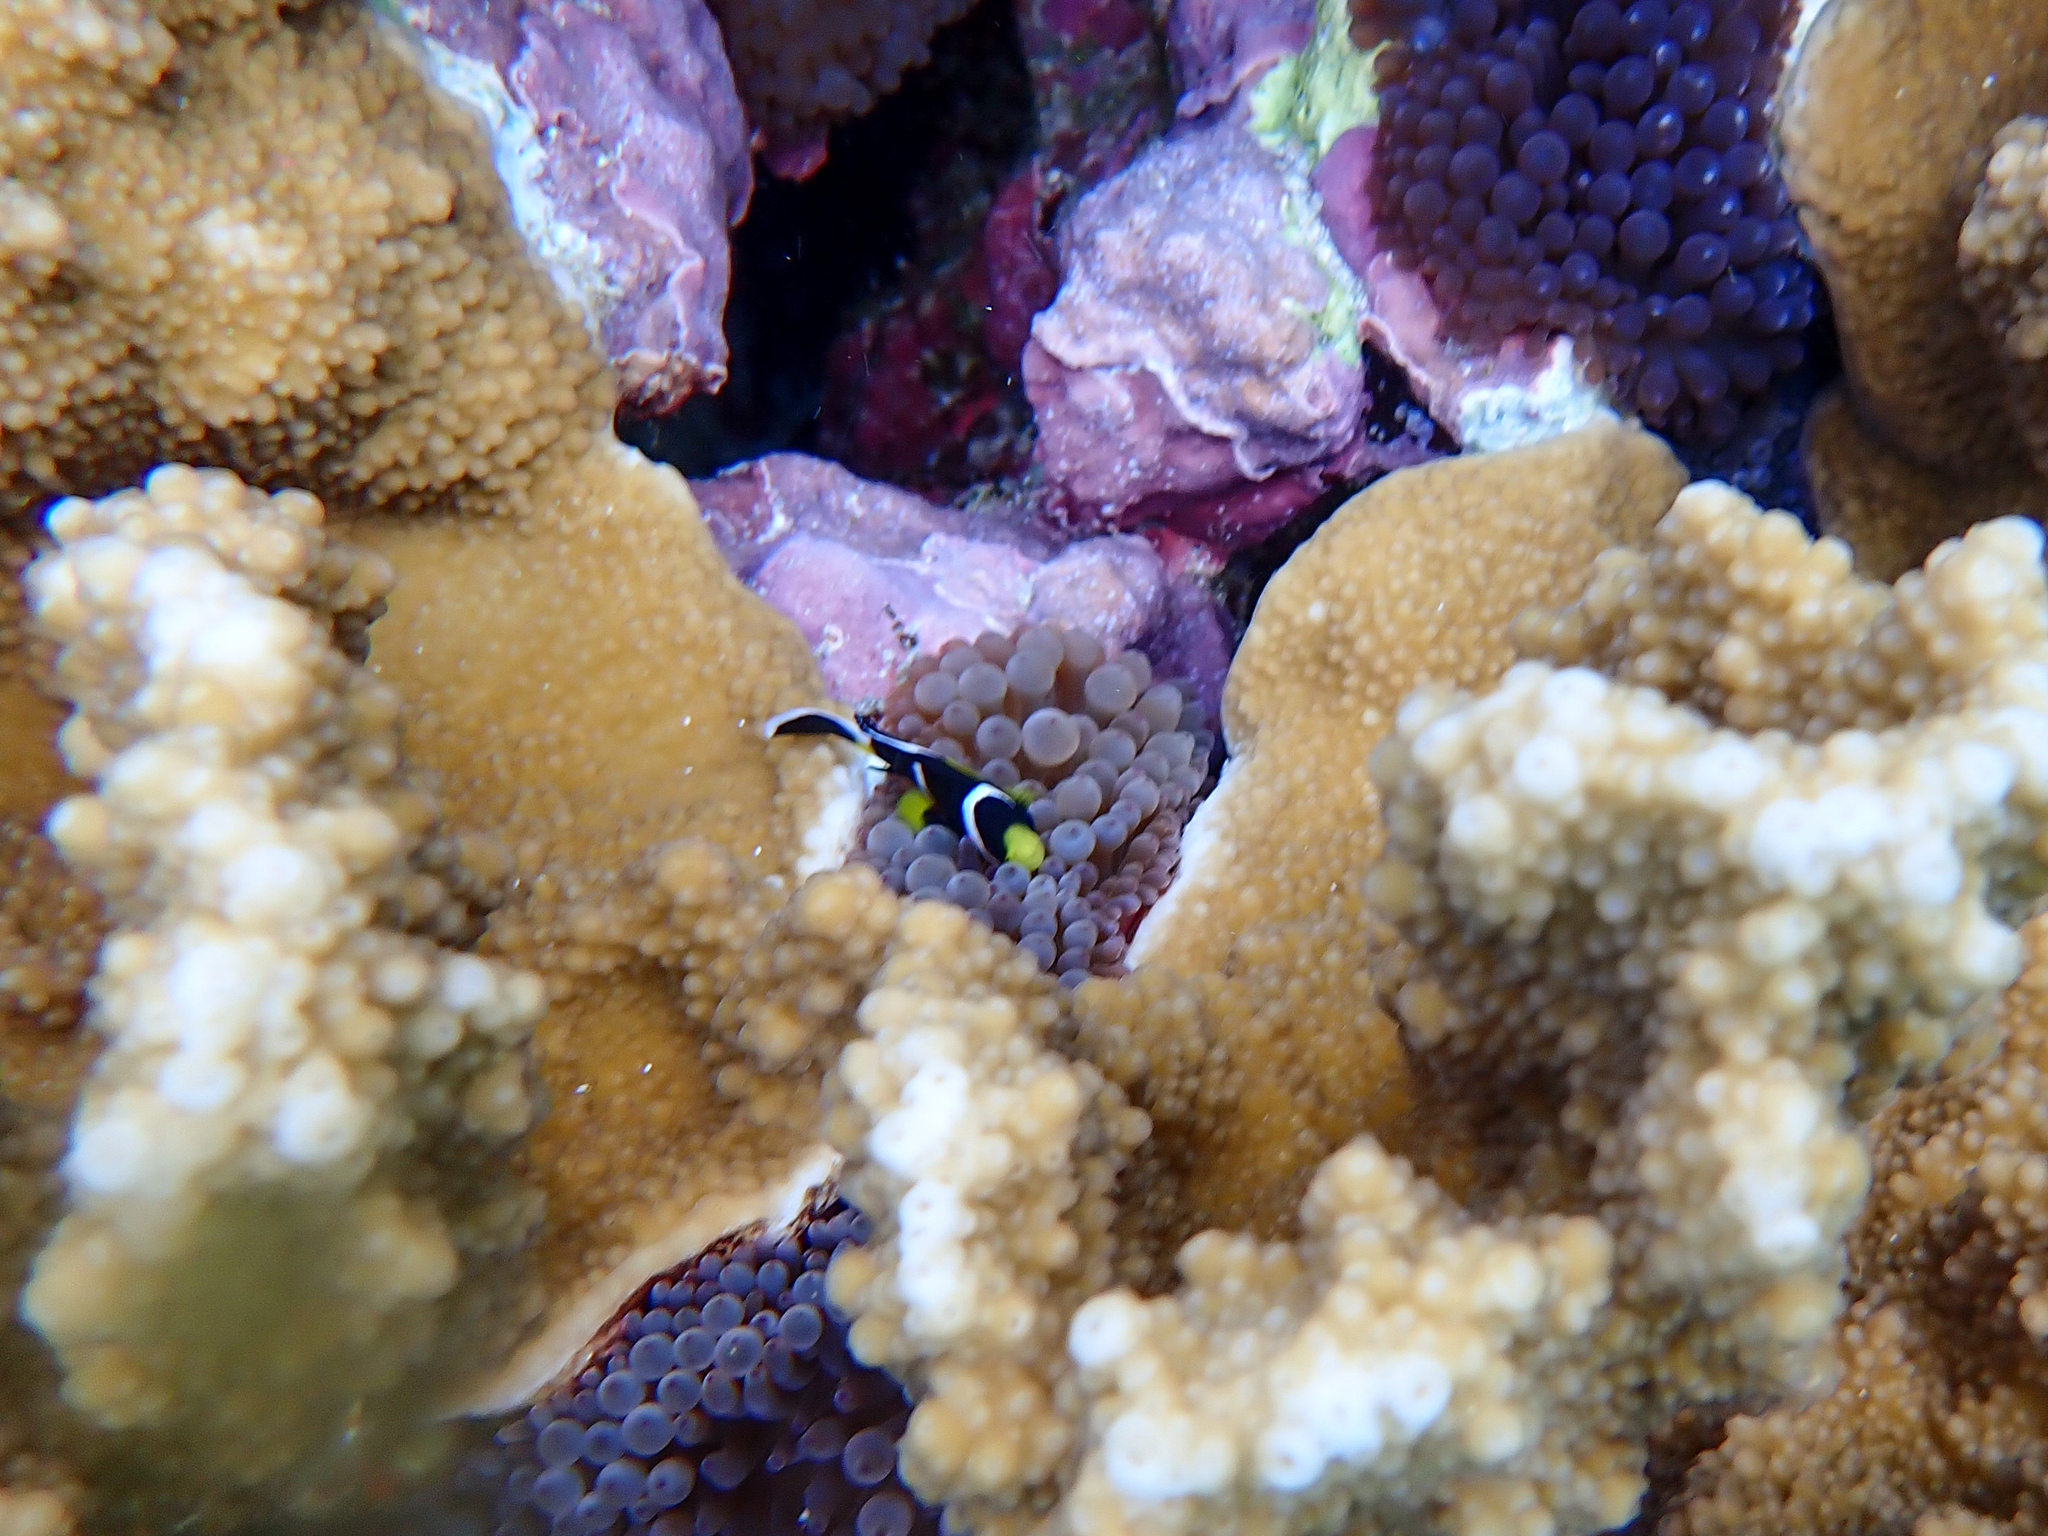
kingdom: Animalia
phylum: Chordata
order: Perciformes
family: Pomacentridae
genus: Amphiprion
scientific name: Amphiprion mccullochi
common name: Mcculloch's anemonefish
